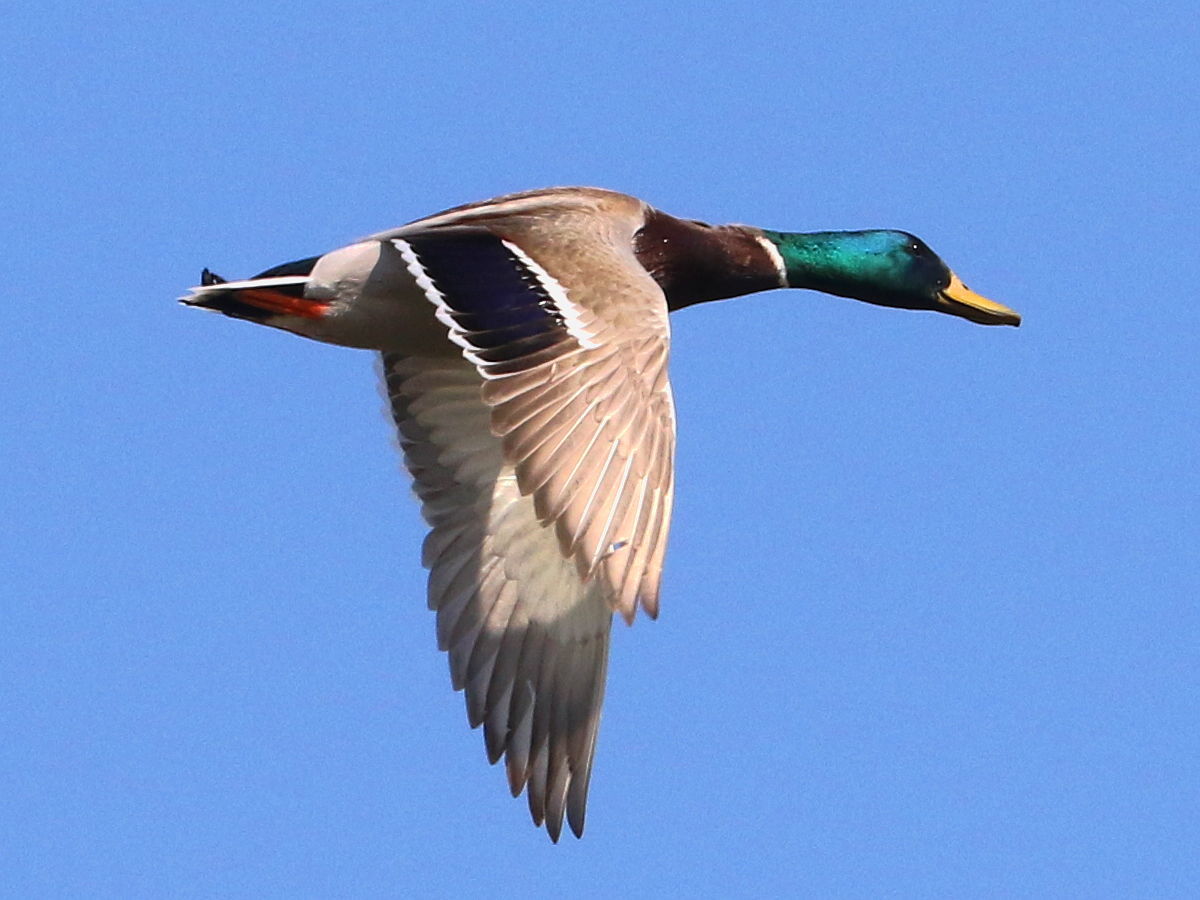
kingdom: Animalia
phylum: Chordata
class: Aves
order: Anseriformes
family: Anatidae
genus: Anas
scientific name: Anas platyrhynchos
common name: Mallard
